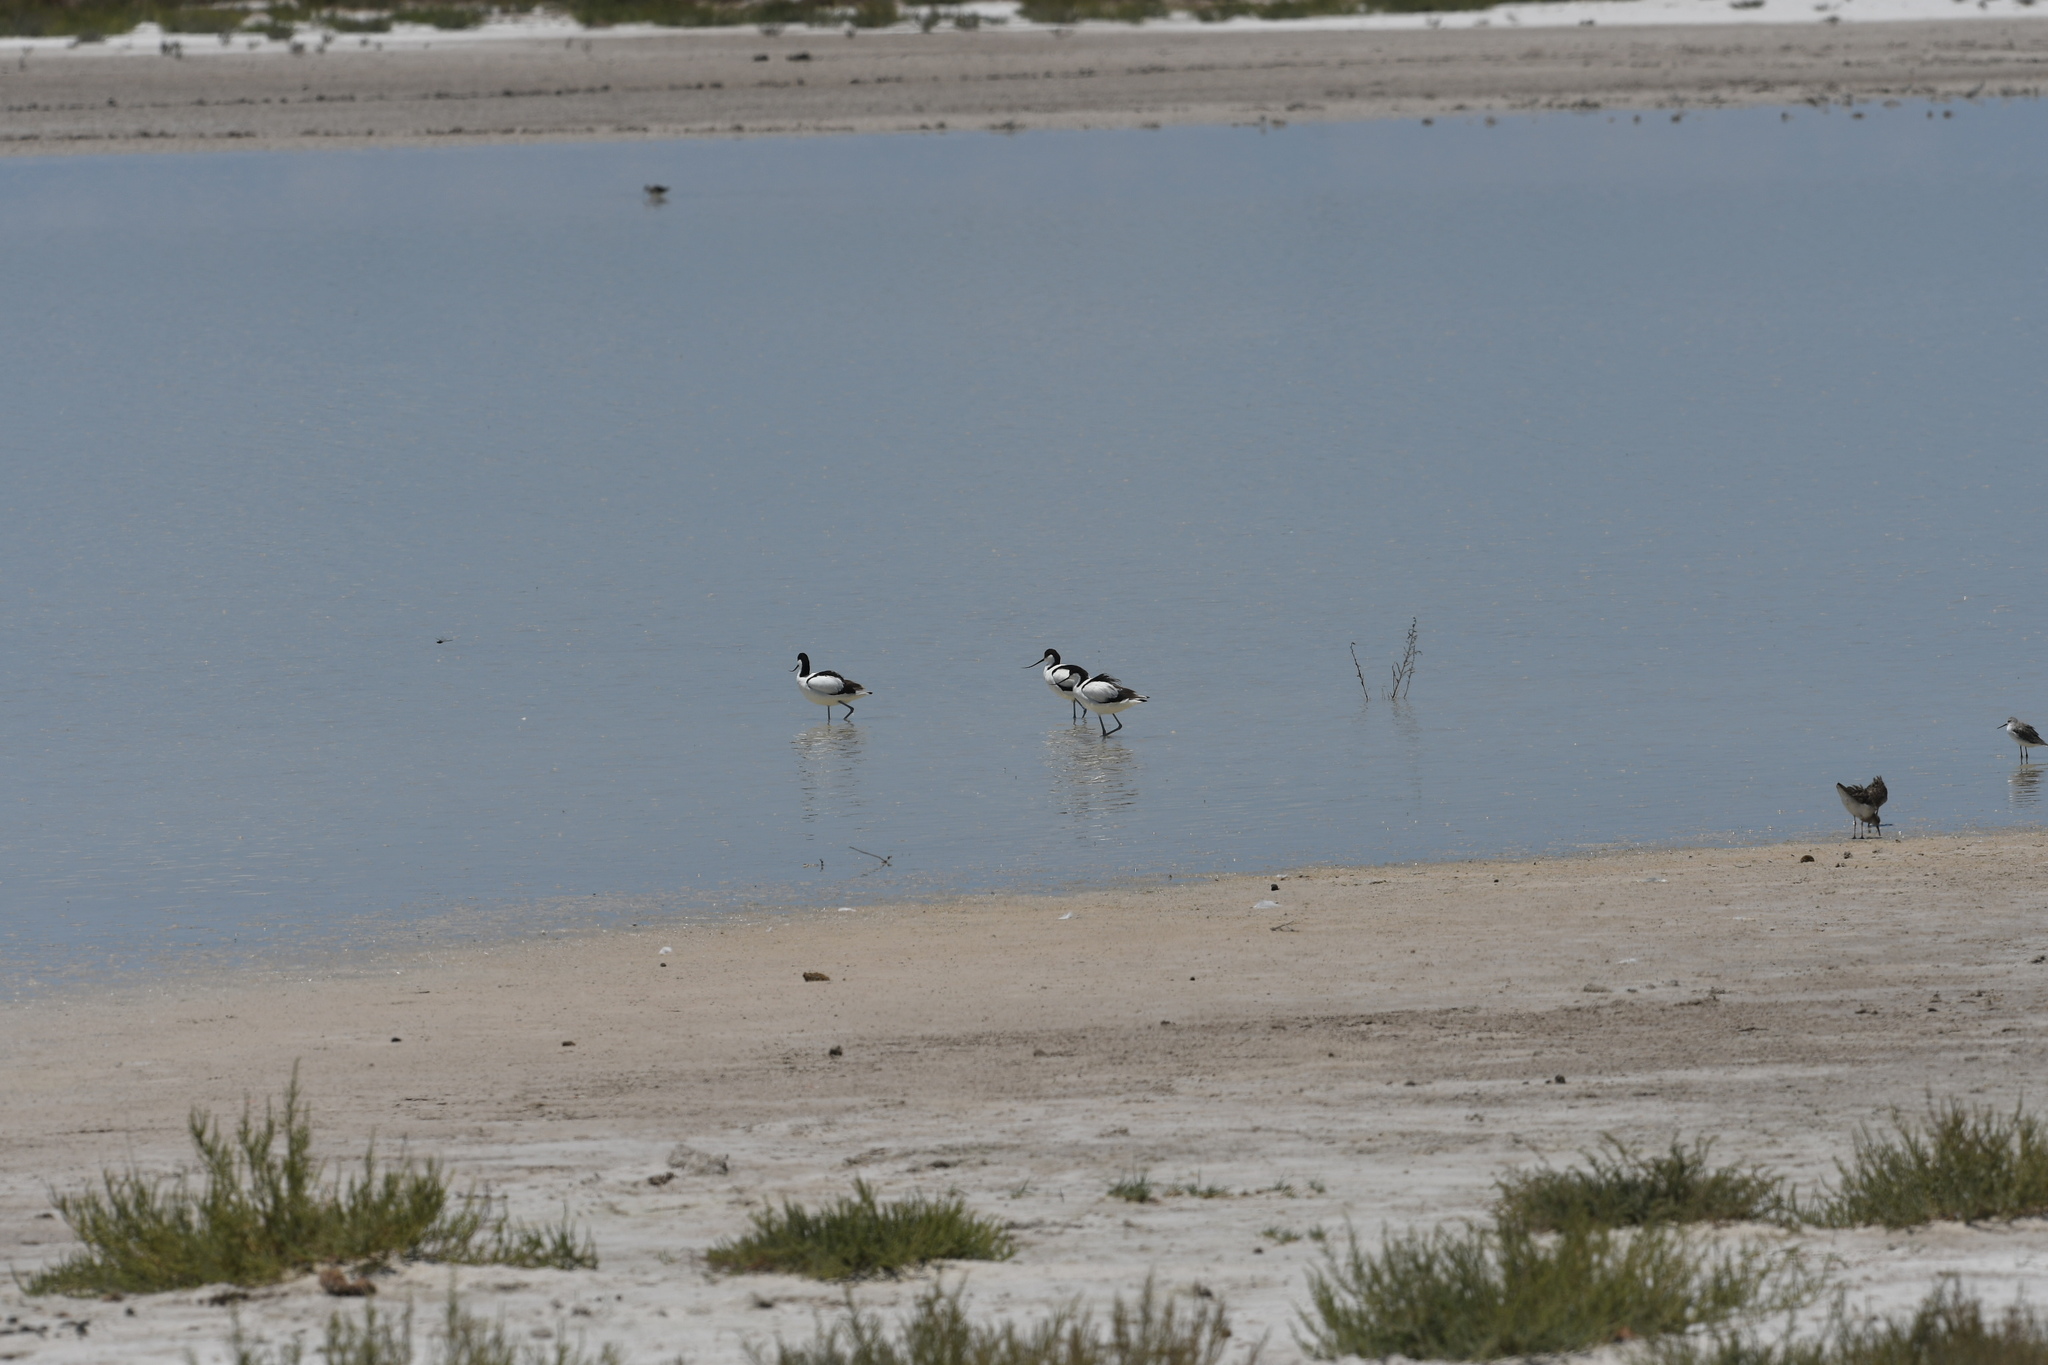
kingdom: Animalia
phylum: Chordata
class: Aves
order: Charadriiformes
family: Recurvirostridae
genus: Recurvirostra
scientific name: Recurvirostra avosetta
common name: Pied avocet
